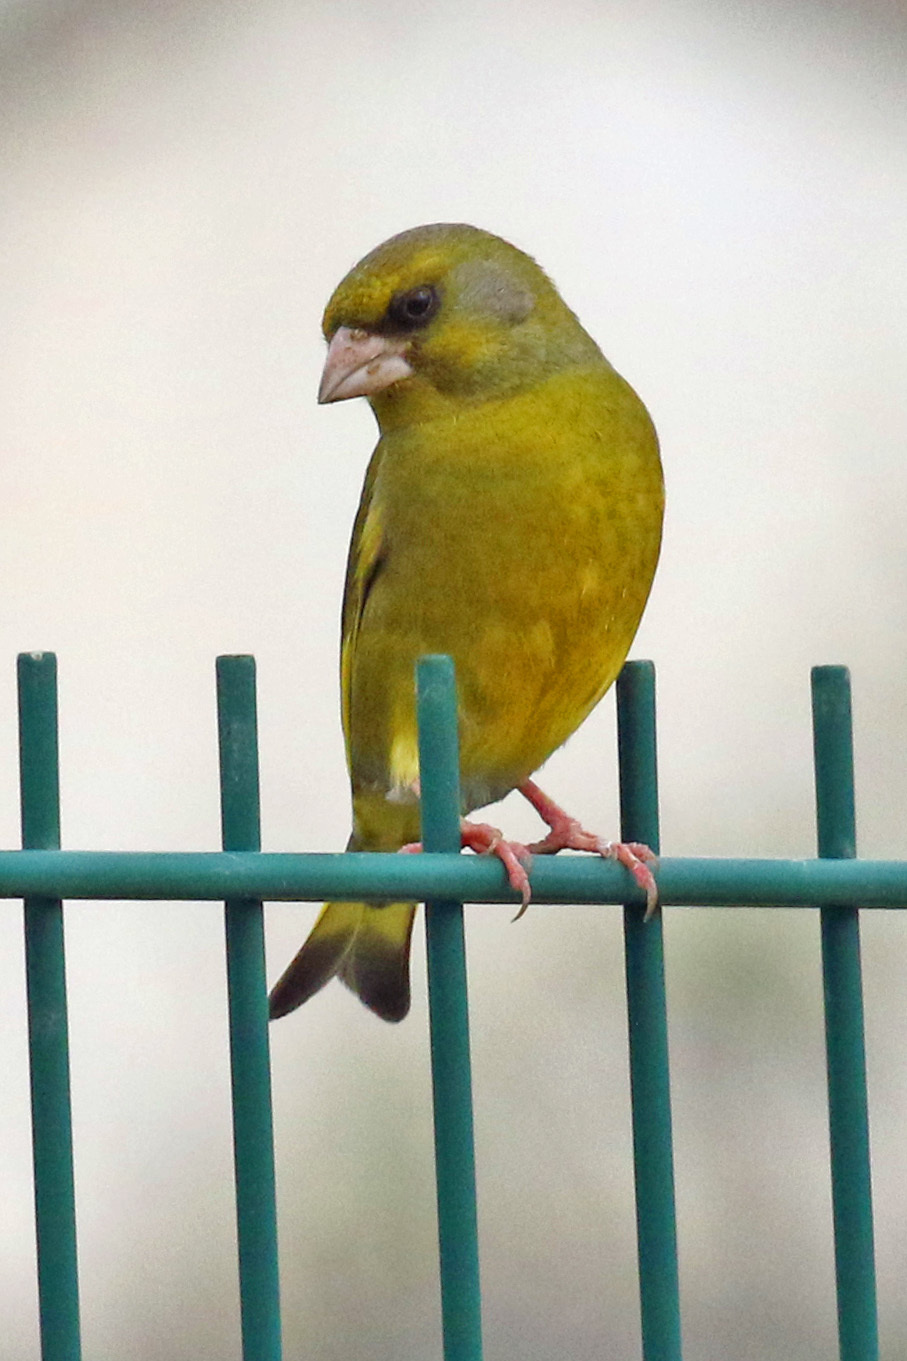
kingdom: Plantae
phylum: Tracheophyta
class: Liliopsida
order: Poales
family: Poaceae
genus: Chloris
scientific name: Chloris chloris
